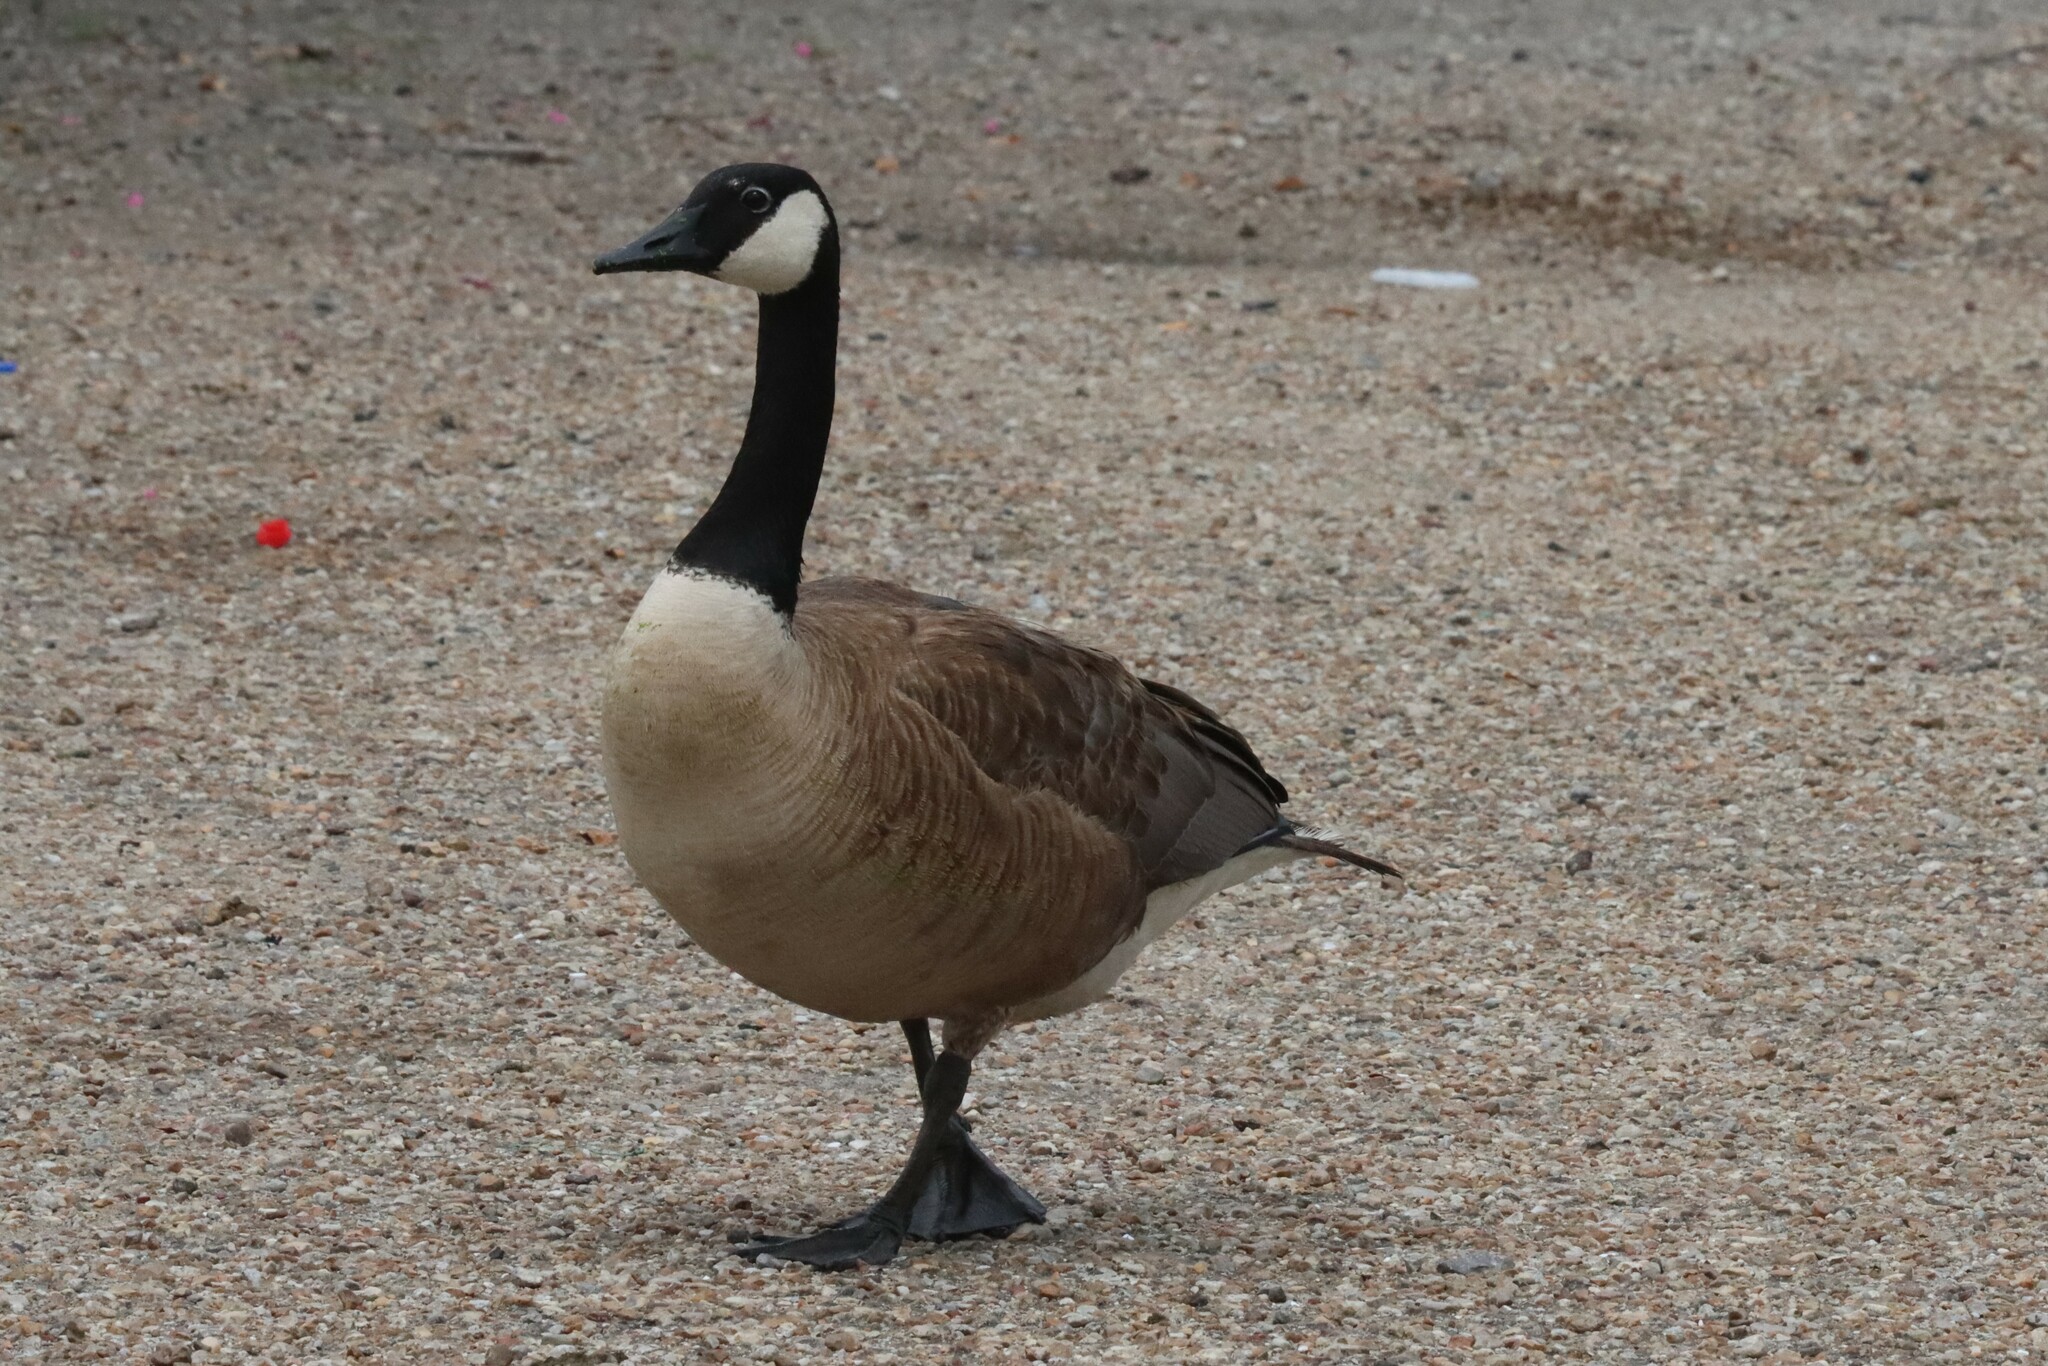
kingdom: Animalia
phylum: Chordata
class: Aves
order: Anseriformes
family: Anatidae
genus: Branta
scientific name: Branta canadensis
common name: Canada goose
